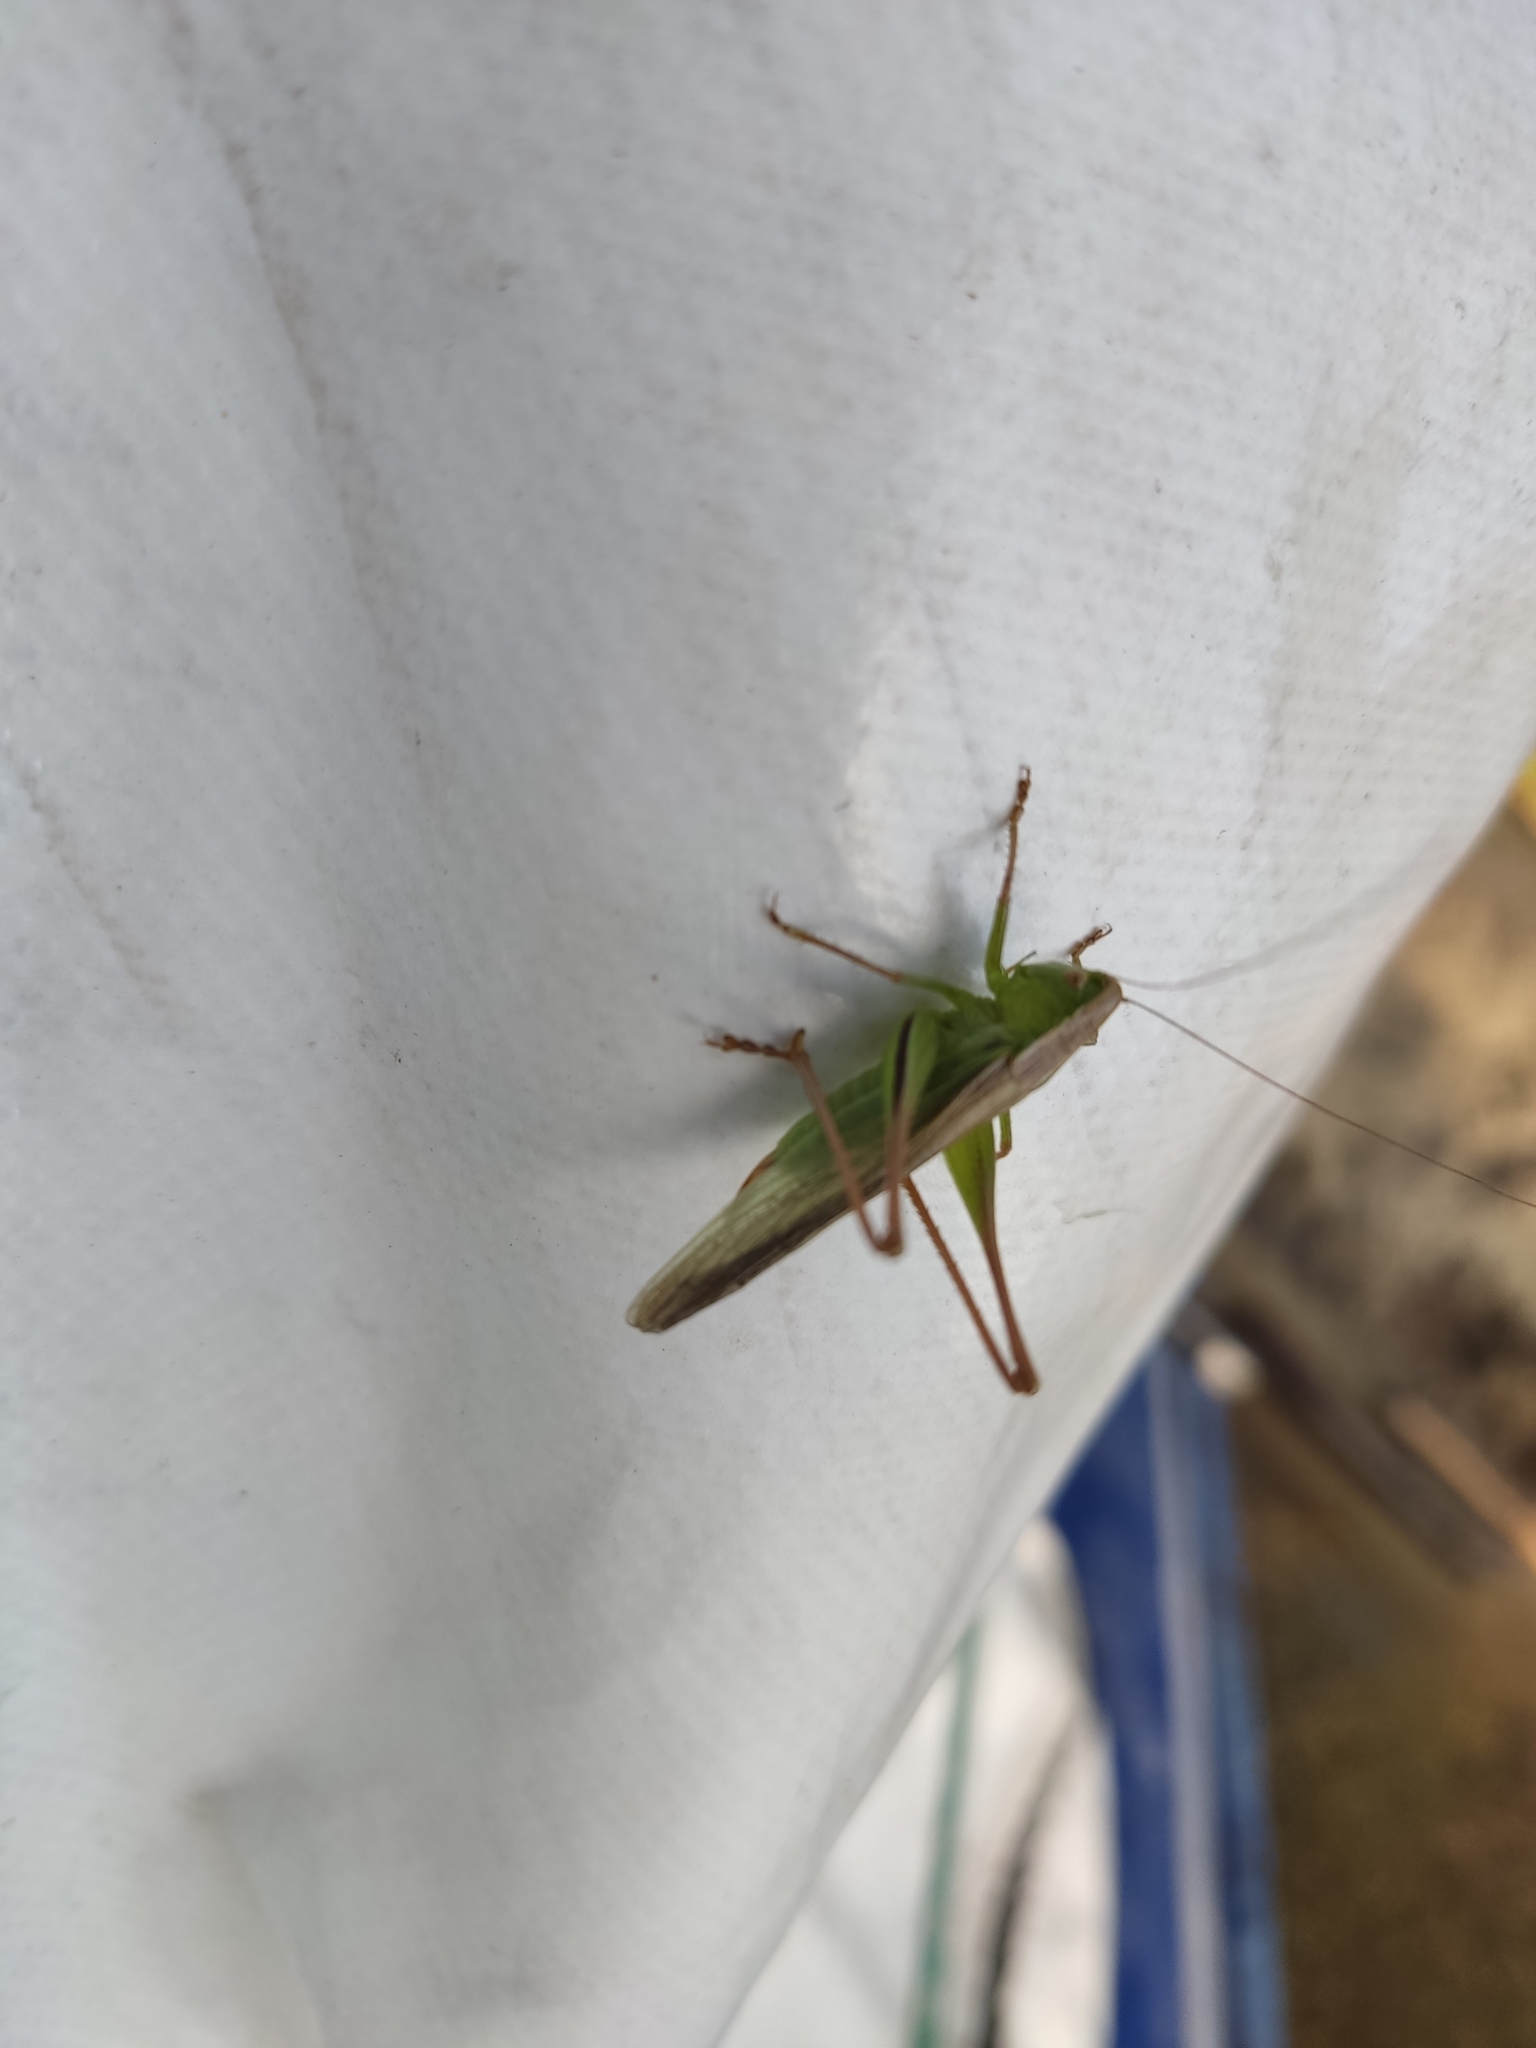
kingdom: Animalia
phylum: Arthropoda
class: Insecta
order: Orthoptera
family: Tettigoniidae
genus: Bicolorana
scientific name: Bicolorana bicolor
